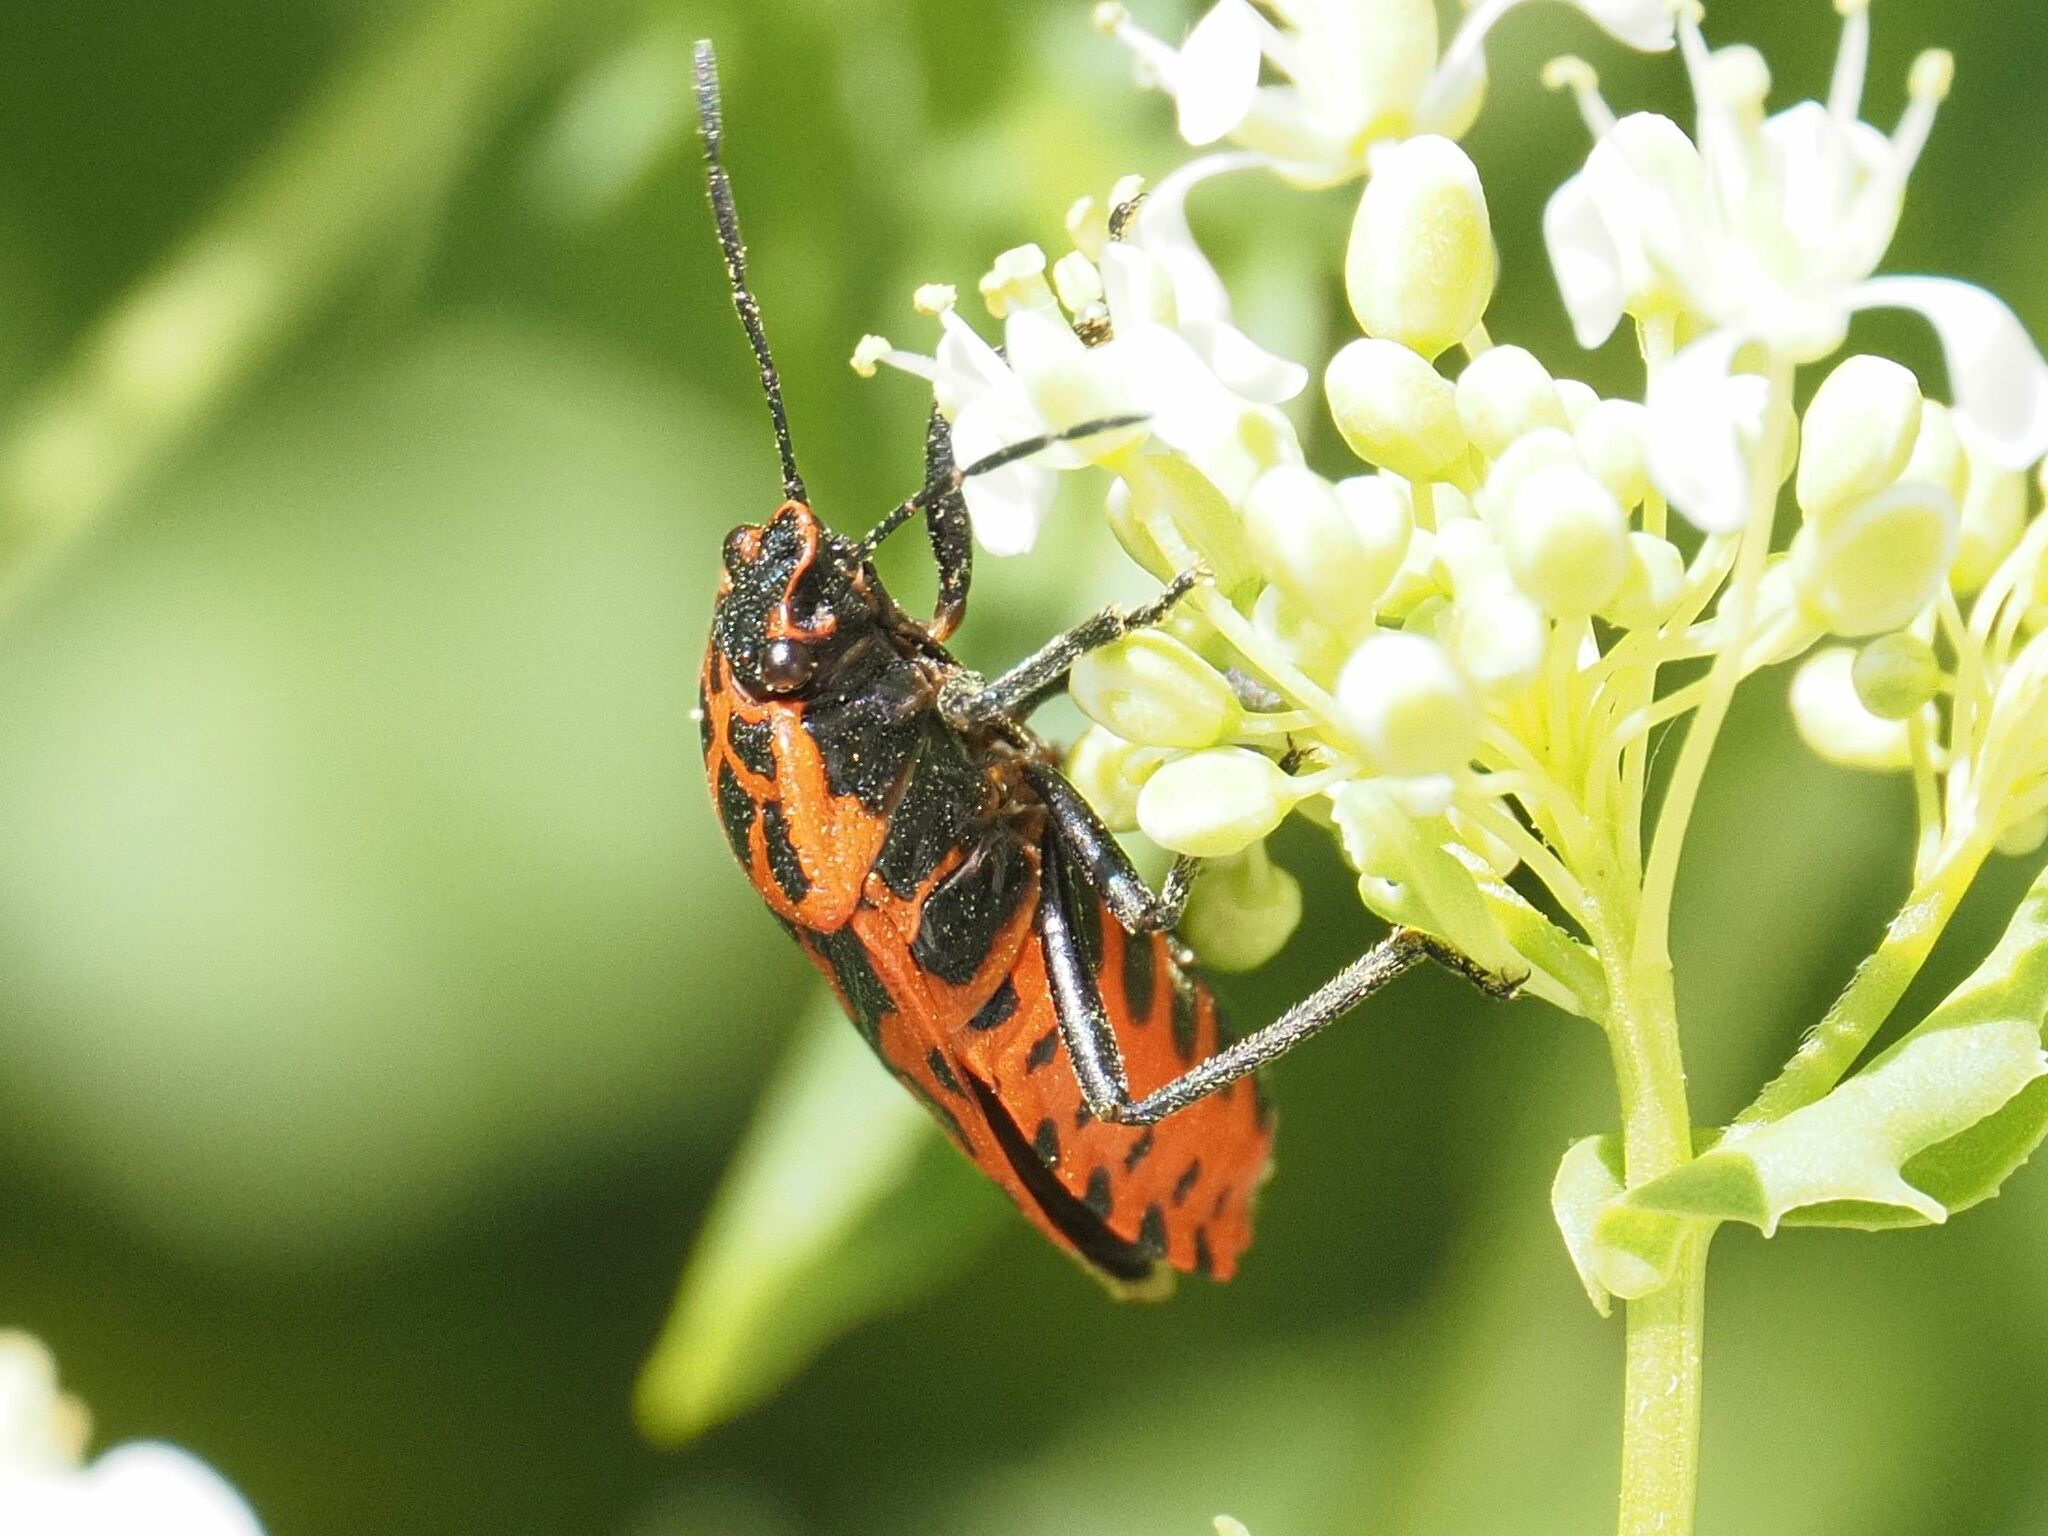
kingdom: Animalia
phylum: Arthropoda
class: Insecta
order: Hemiptera
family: Pentatomidae
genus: Eurydema
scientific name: Eurydema ventralis
